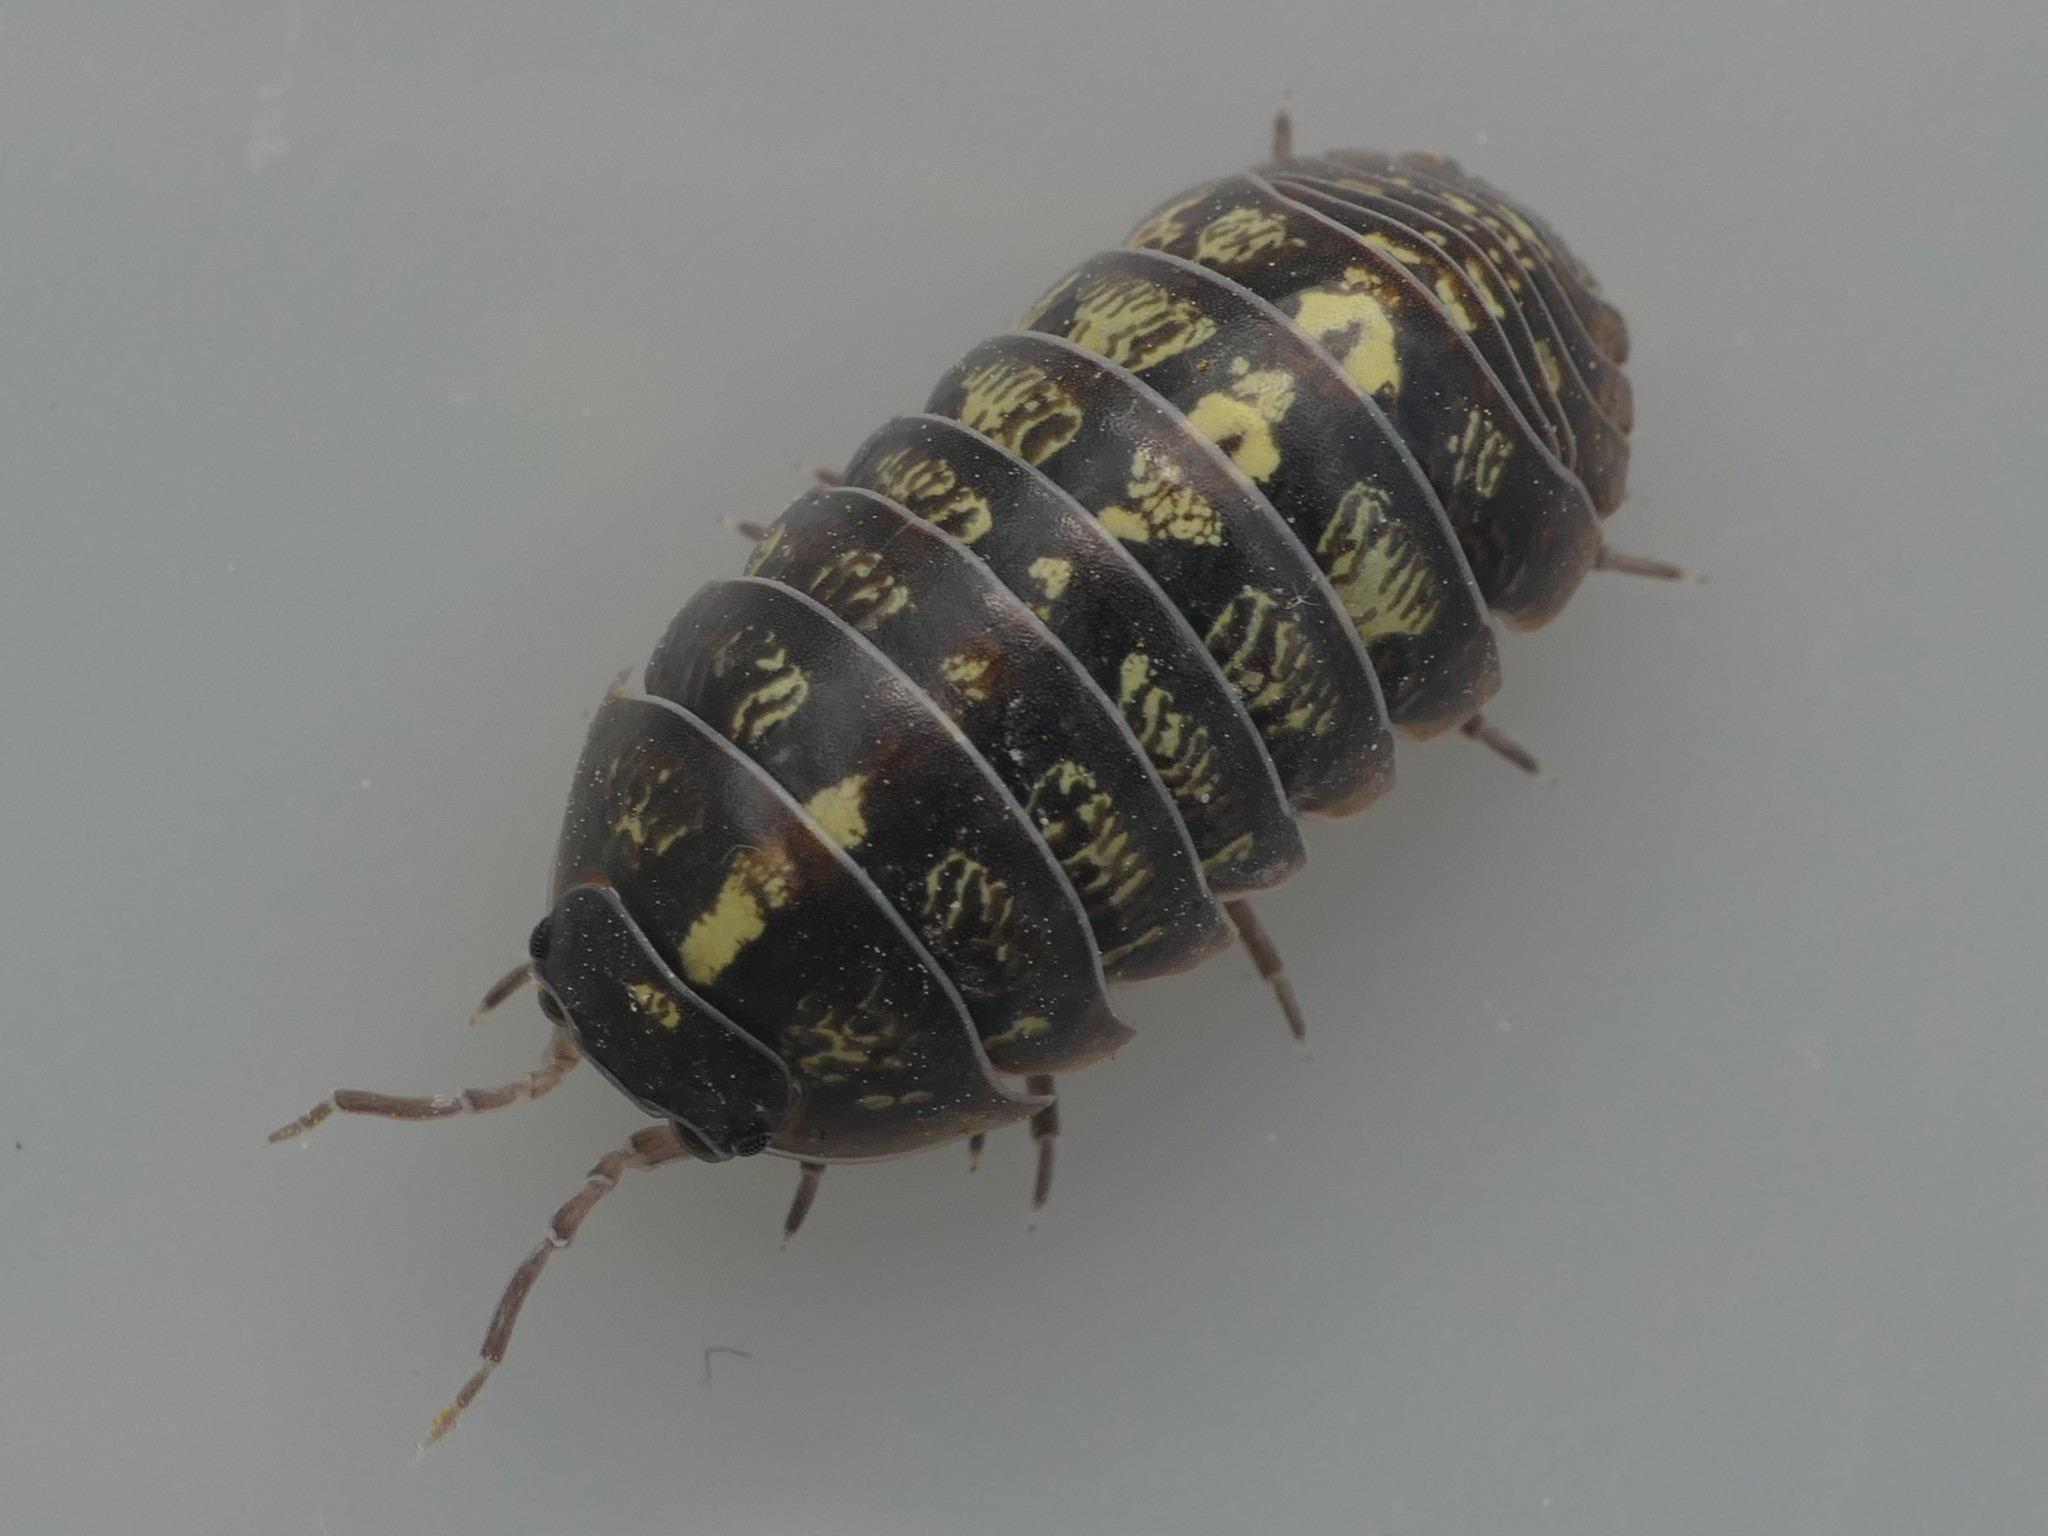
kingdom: Animalia
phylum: Arthropoda
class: Malacostraca
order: Isopoda
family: Armadillidiidae
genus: Armadillidium
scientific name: Armadillidium vulgare
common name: Common pill woodlouse
